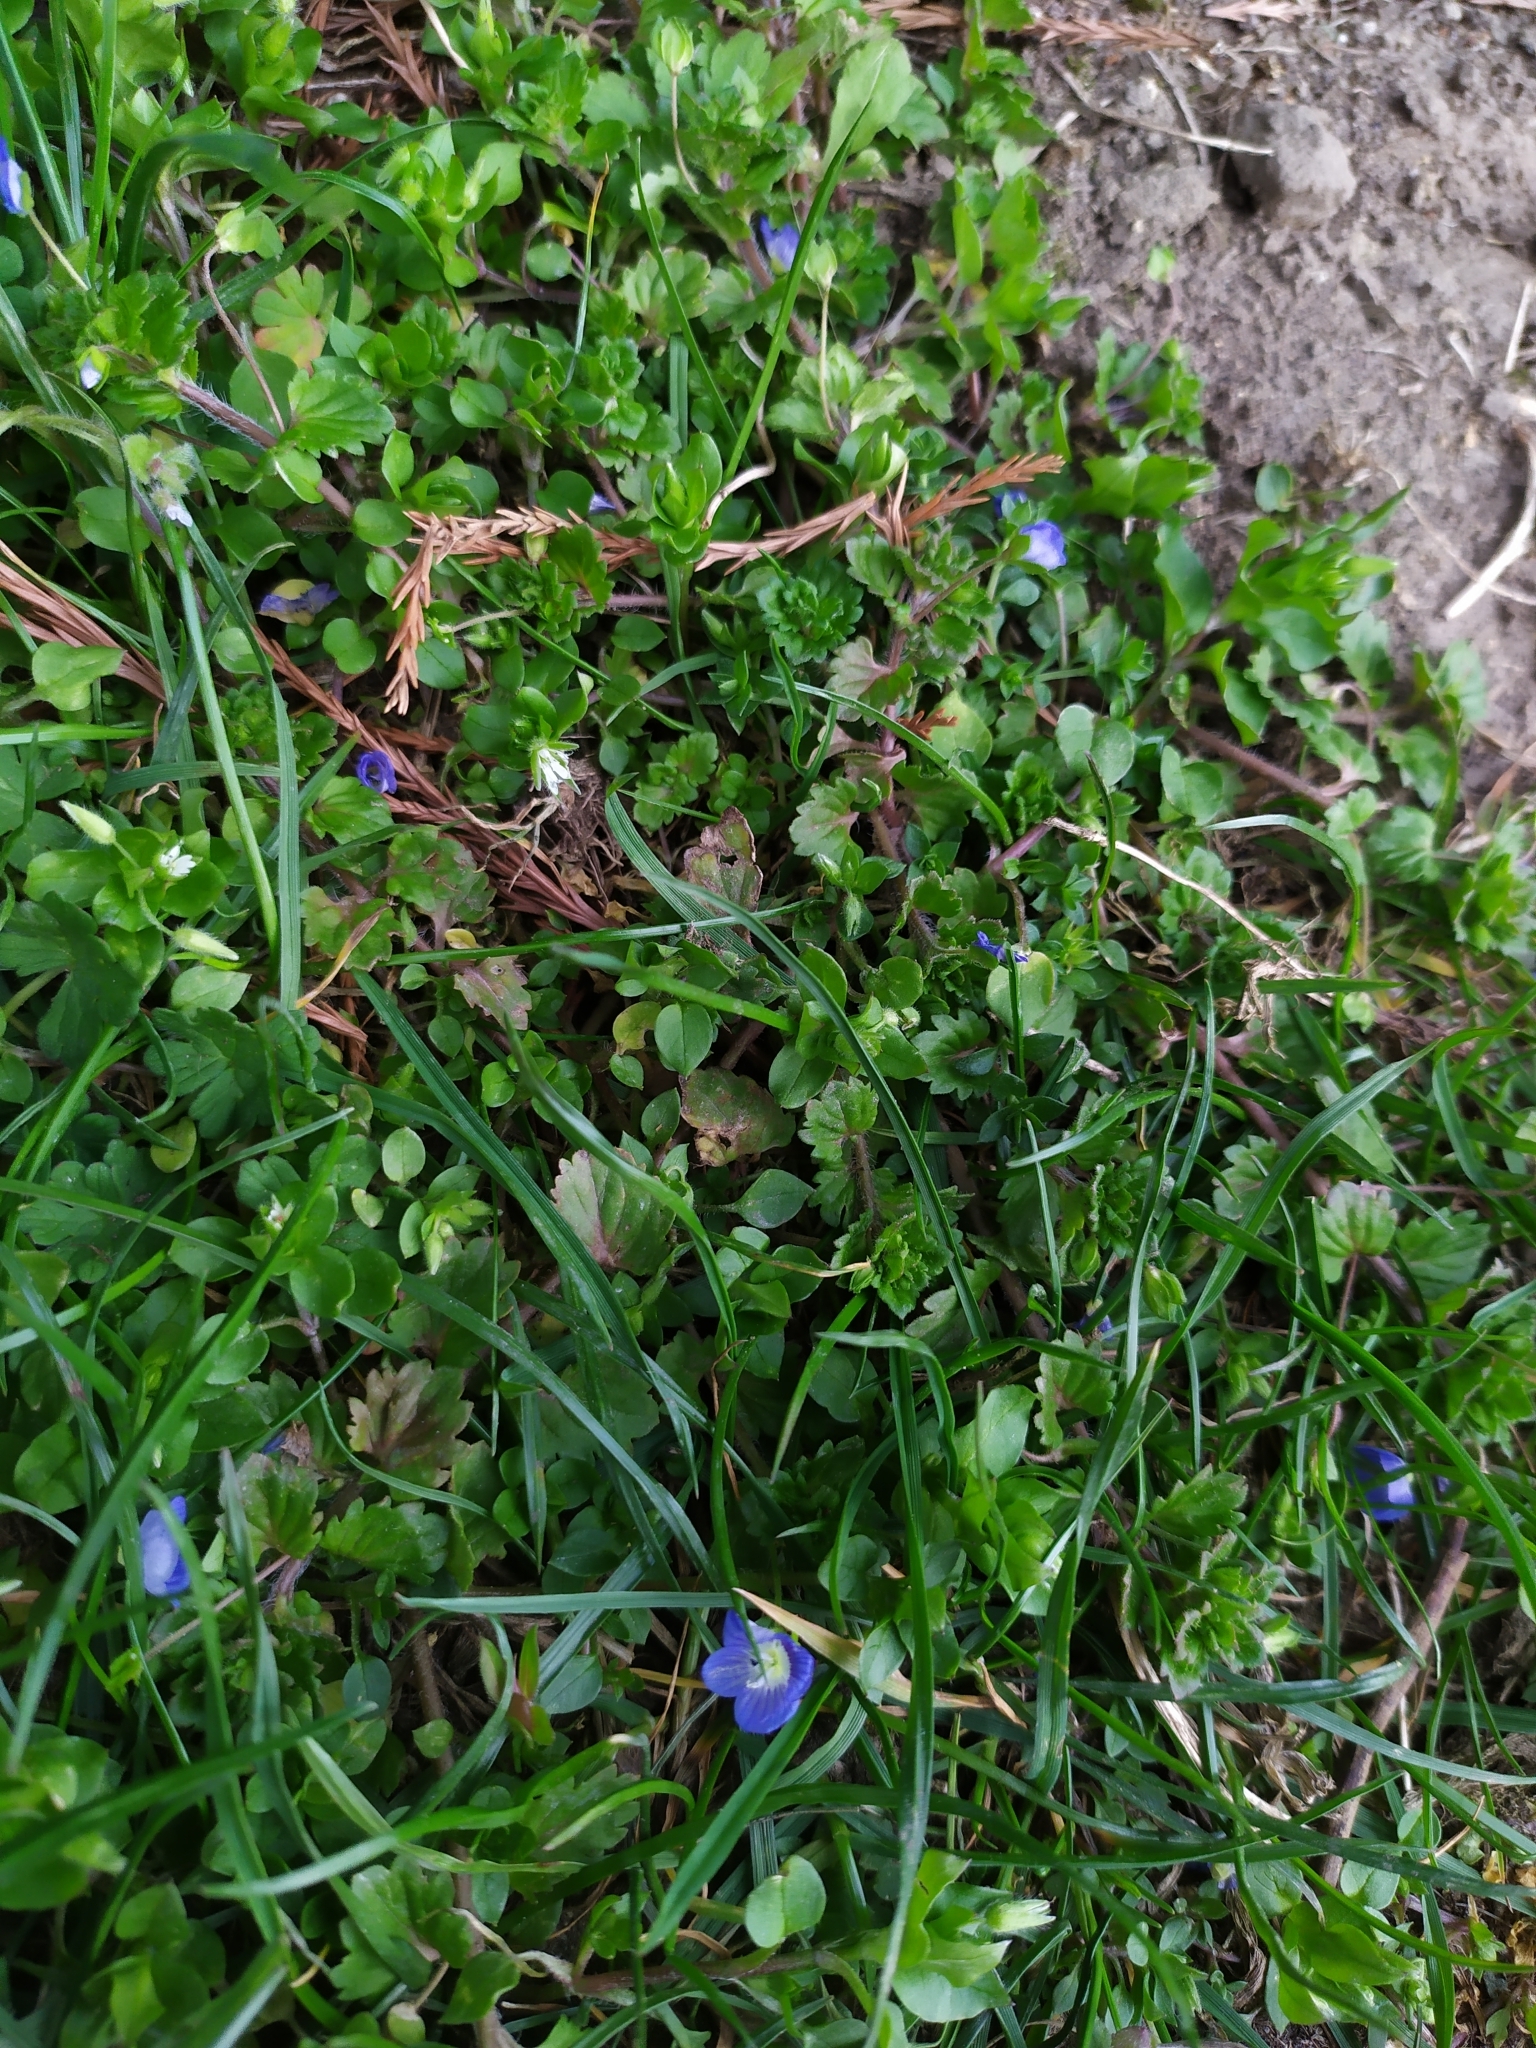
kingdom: Plantae
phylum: Tracheophyta
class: Magnoliopsida
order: Lamiales
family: Plantaginaceae
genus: Veronica
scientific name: Veronica persica
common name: Common field-speedwell
